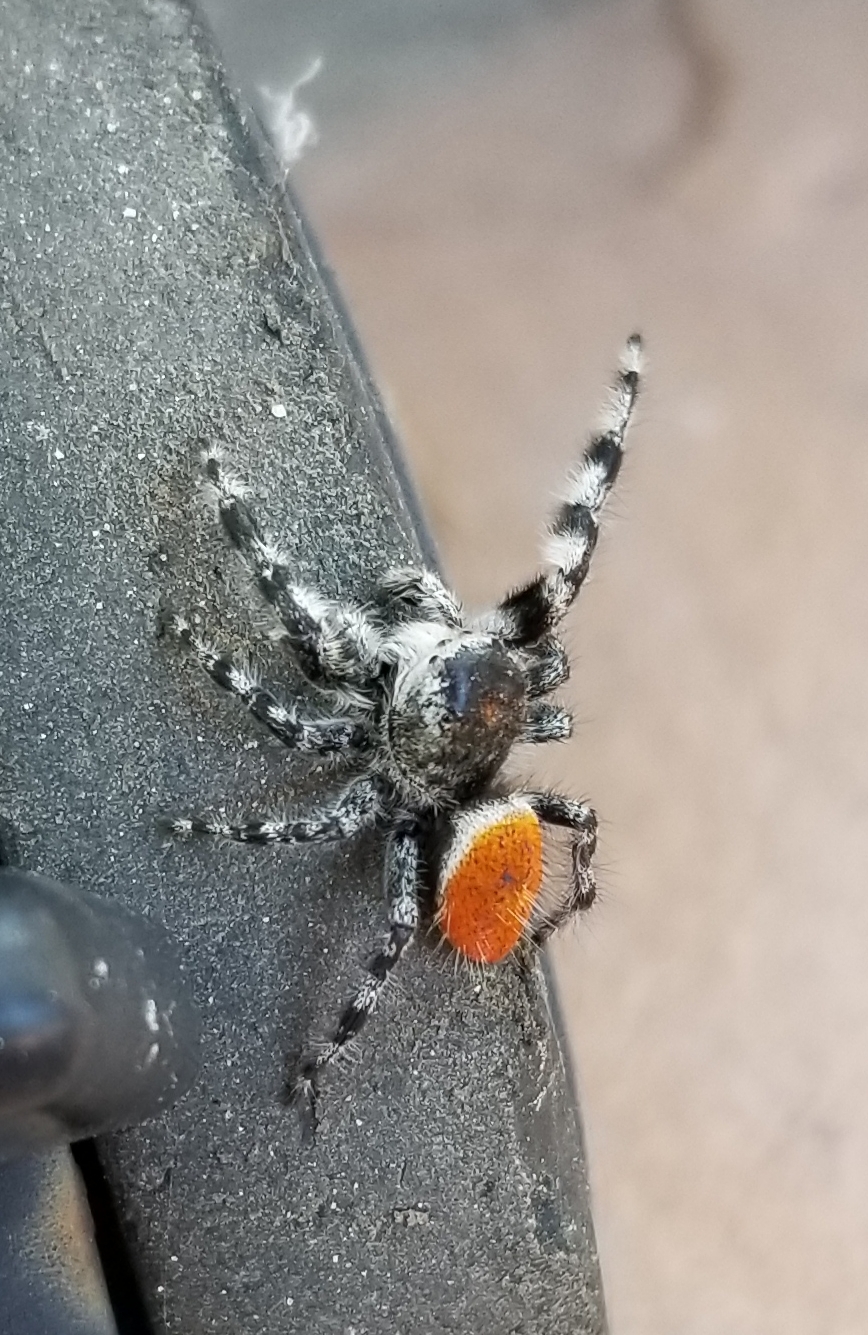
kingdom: Animalia
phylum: Arthropoda
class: Arachnida
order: Araneae
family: Salticidae
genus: Phidippus
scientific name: Phidippus adumbratus
